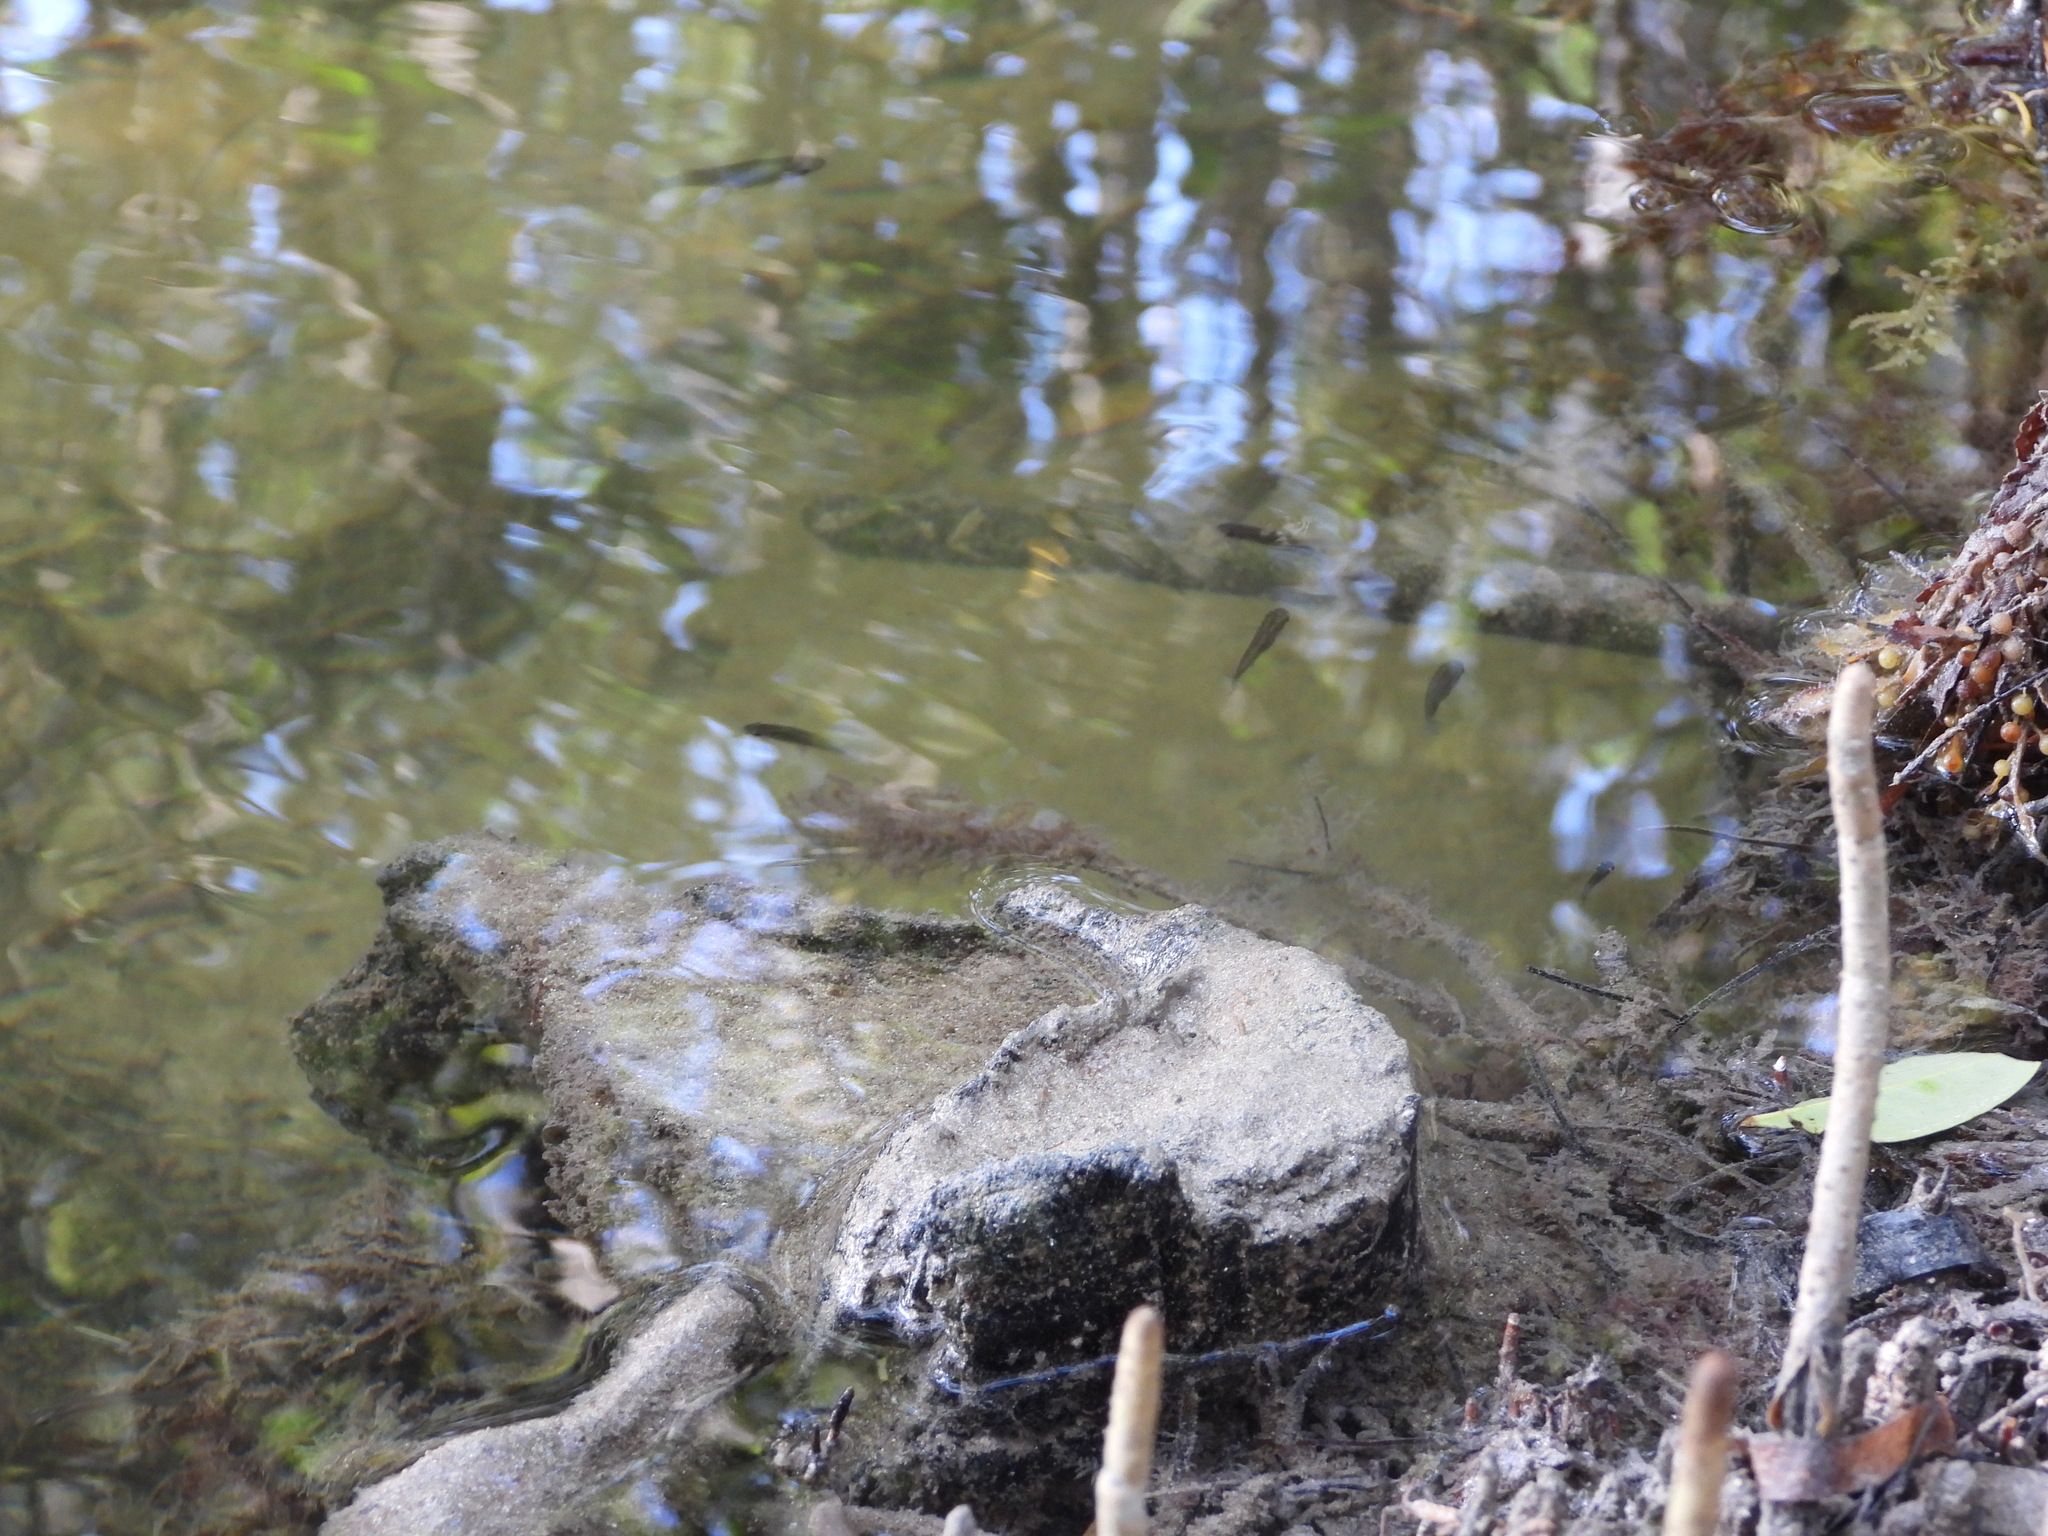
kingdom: Animalia
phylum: Chordata
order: Cyprinodontiformes
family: Poeciliidae
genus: Gambusia
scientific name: Gambusia holbrooki
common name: Eastern mosquitofish
